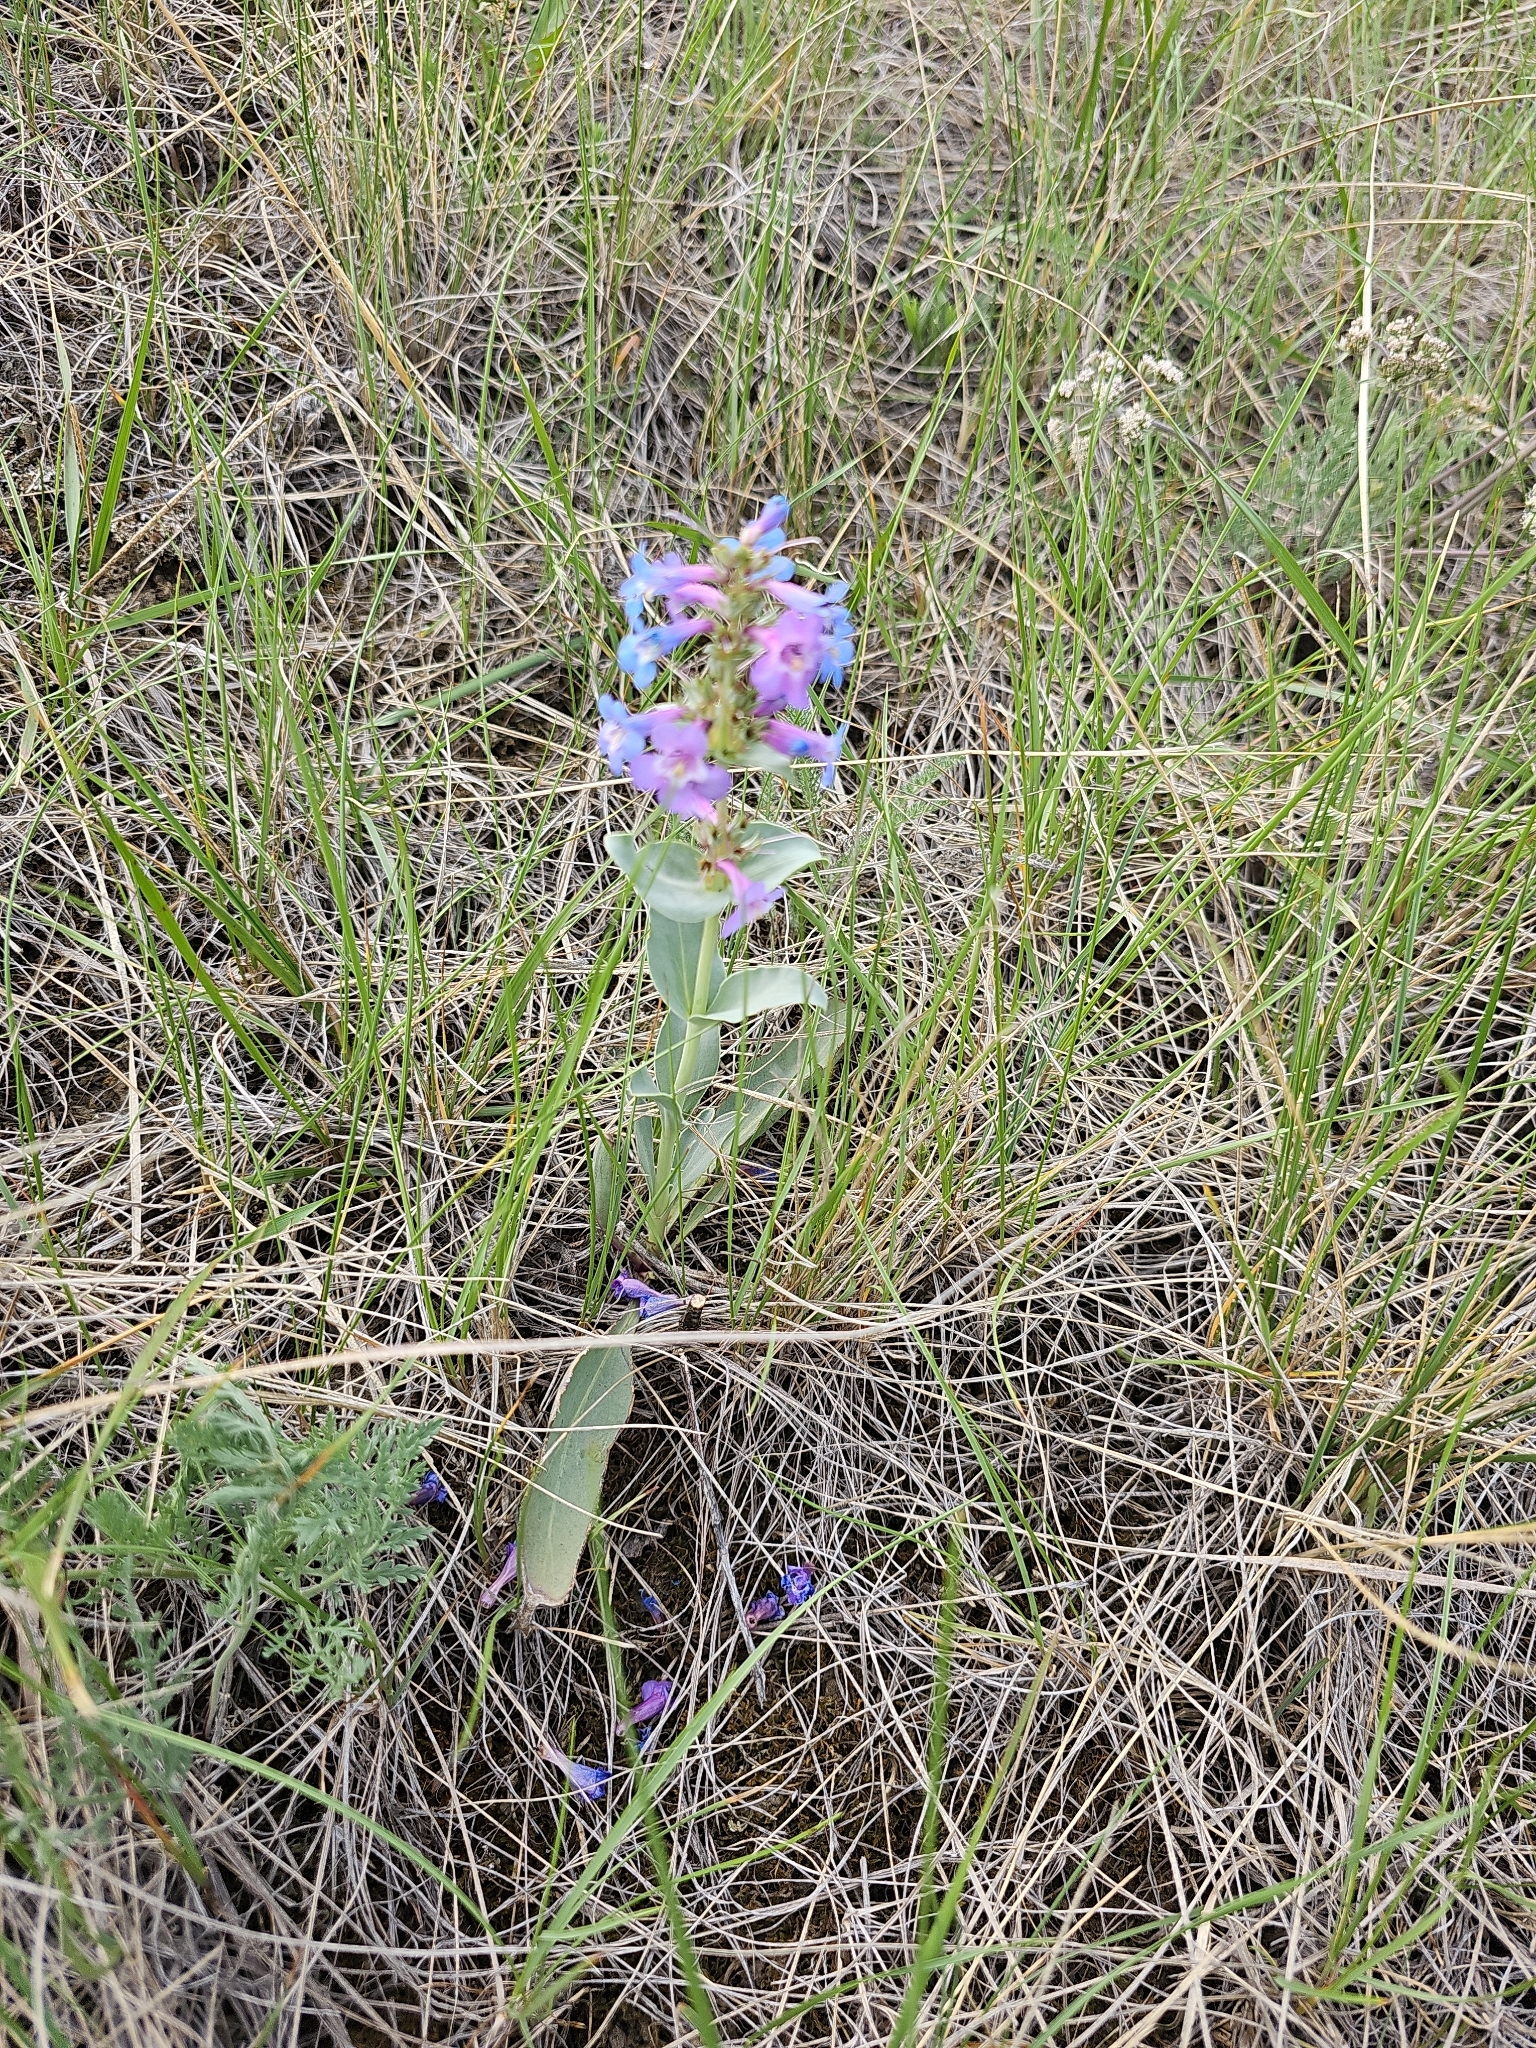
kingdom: Plantae
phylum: Tracheophyta
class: Magnoliopsida
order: Lamiales
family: Plantaginaceae
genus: Penstemon
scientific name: Penstemon nitidus
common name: Shining penstemon
